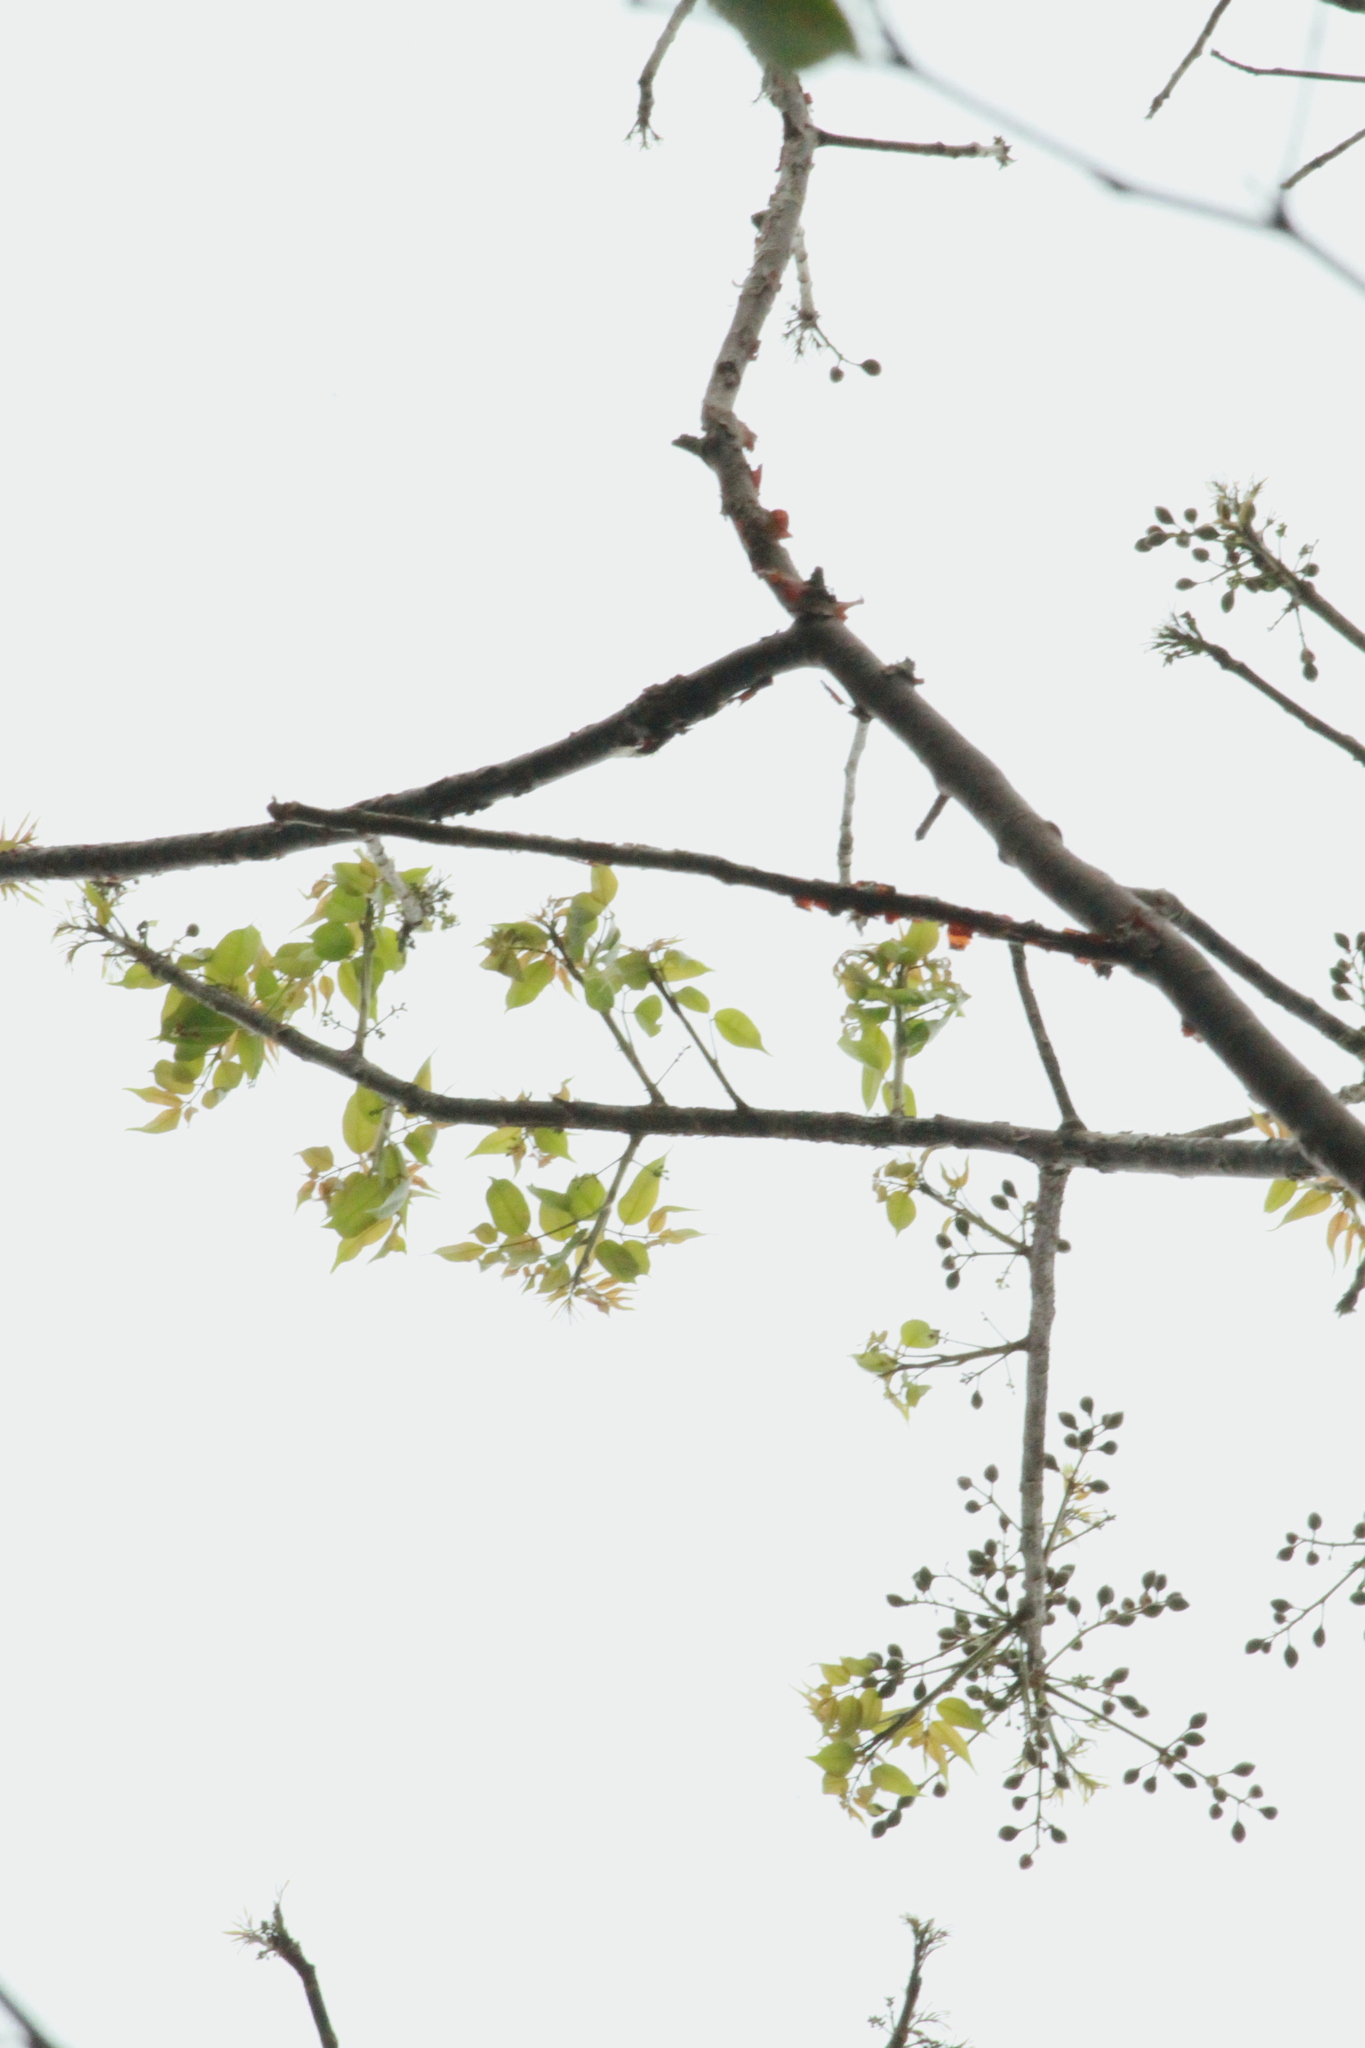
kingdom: Plantae
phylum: Tracheophyta
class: Magnoliopsida
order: Sapindales
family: Burseraceae
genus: Bursera
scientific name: Bursera simaruba
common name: Turpentine tree
